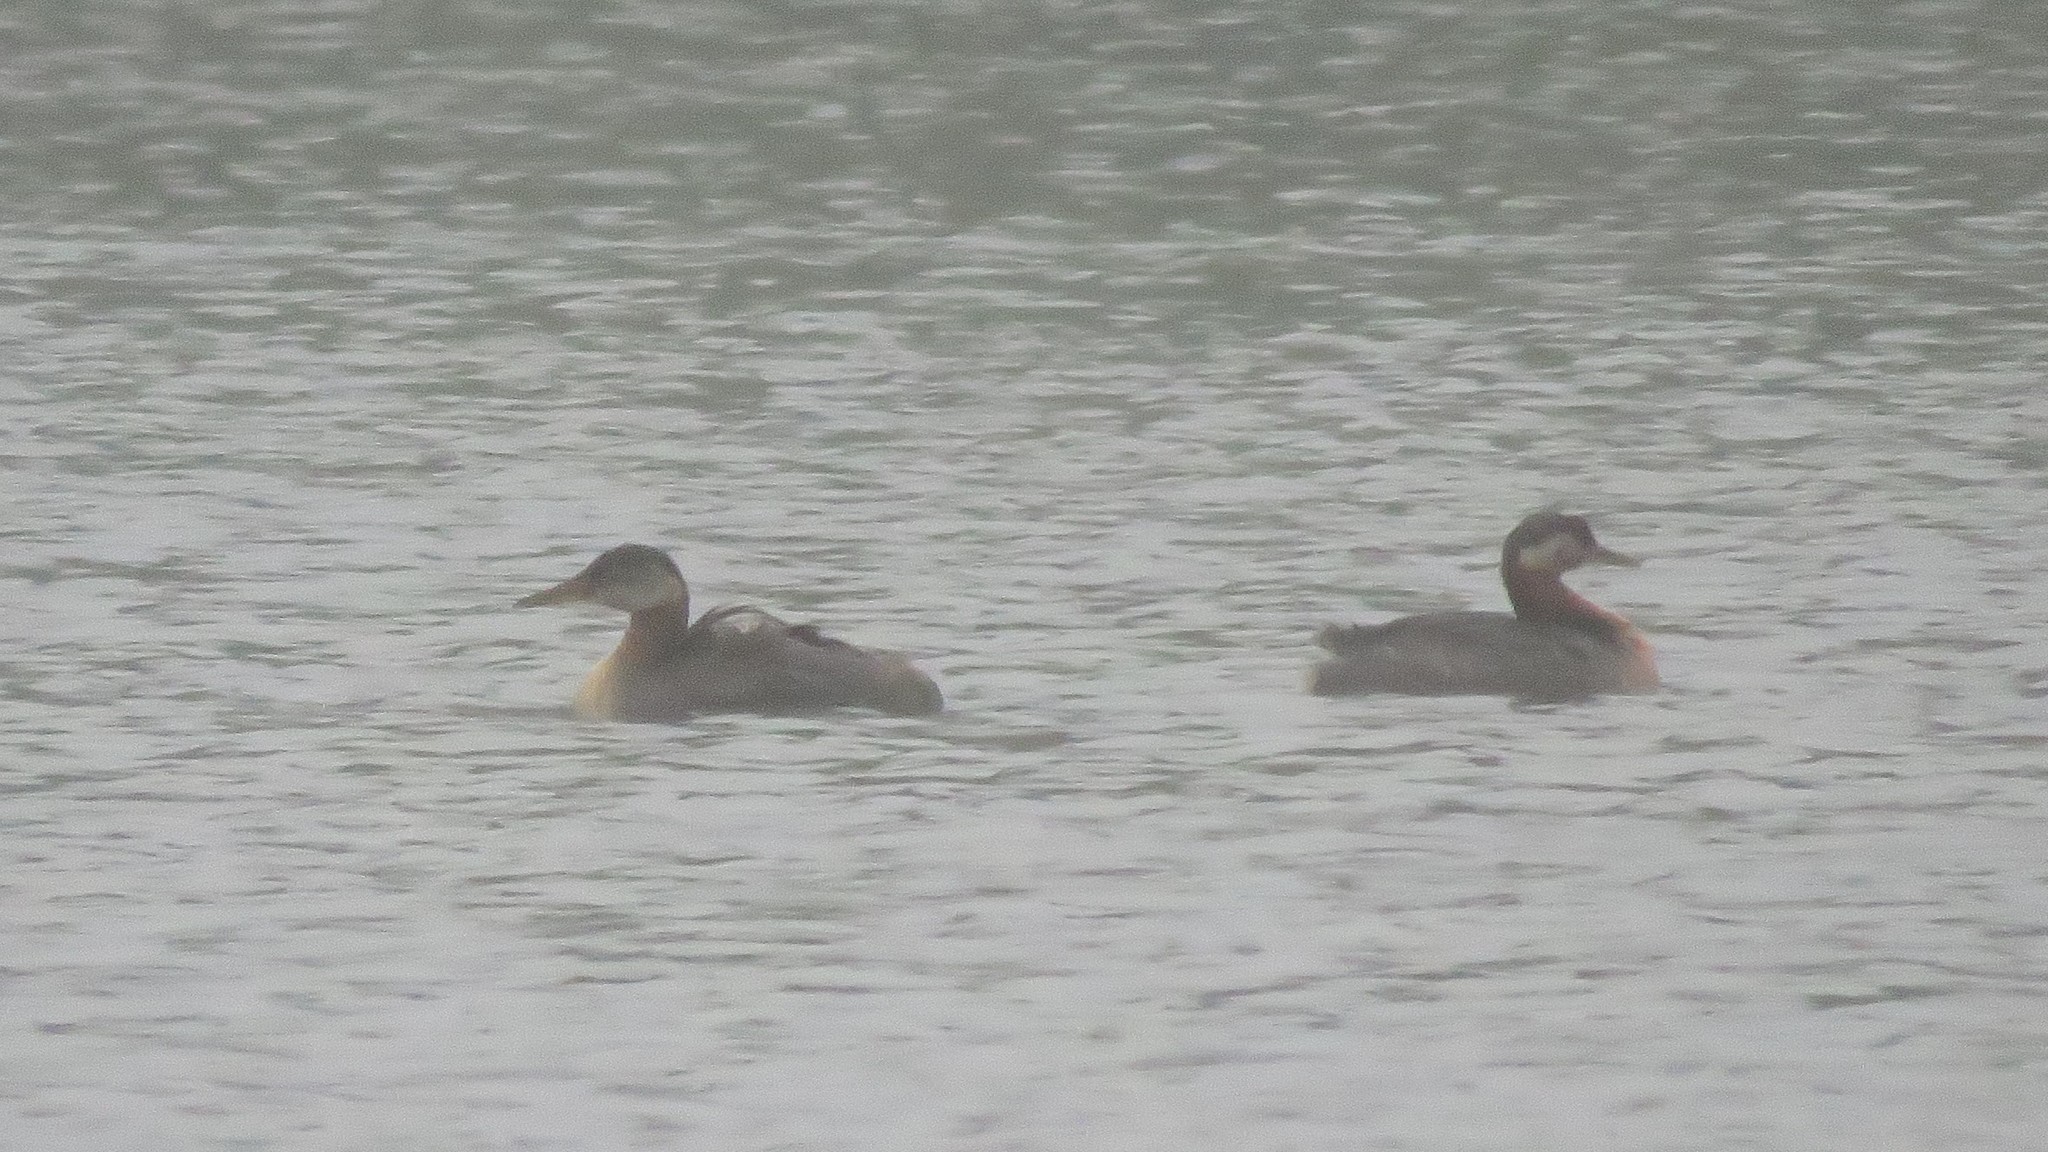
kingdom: Animalia
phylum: Chordata
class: Aves
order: Podicipediformes
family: Podicipedidae
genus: Podiceps
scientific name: Podiceps grisegena
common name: Red-necked grebe
